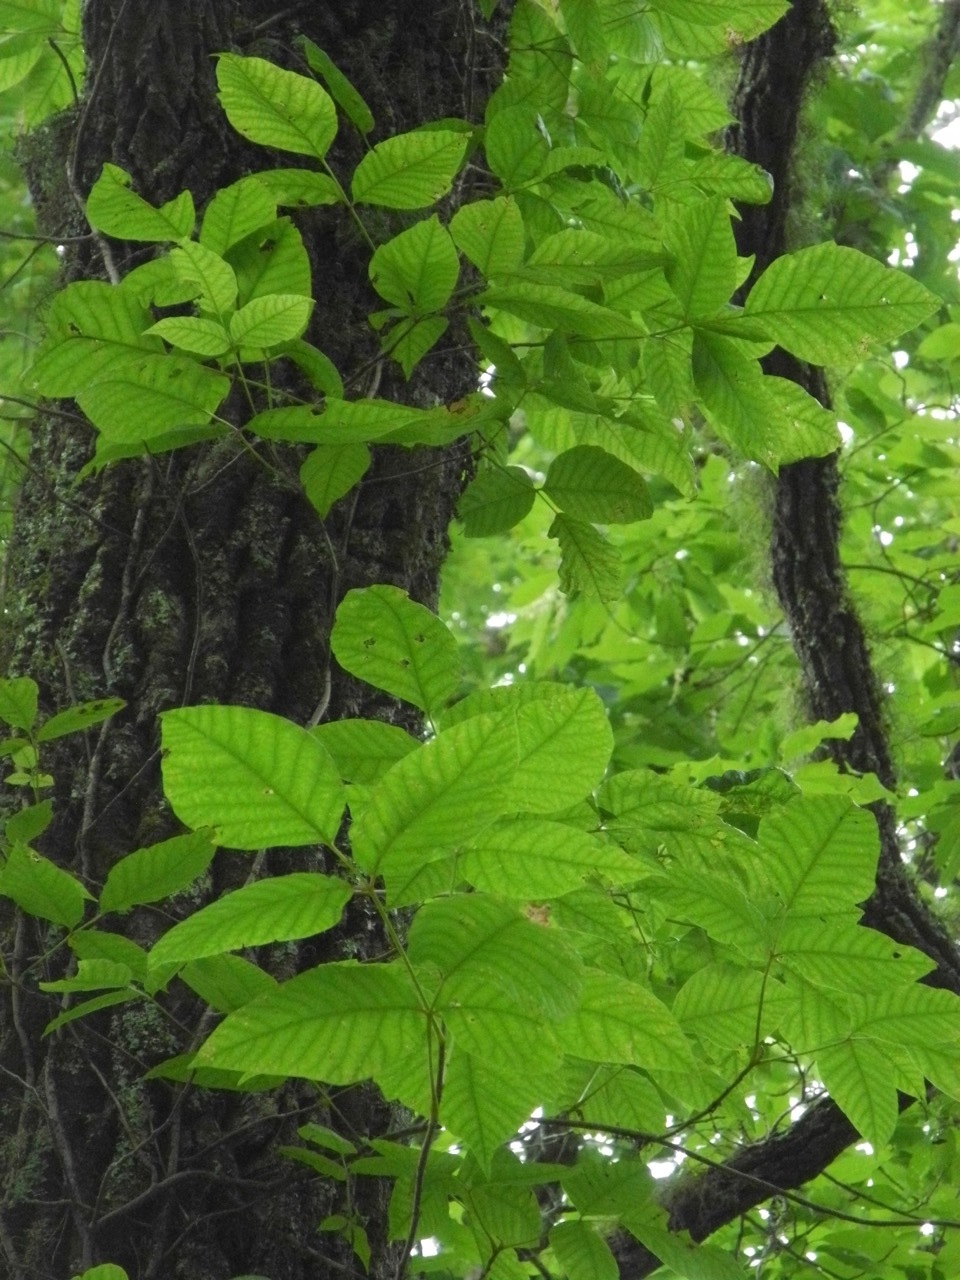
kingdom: Plantae
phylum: Tracheophyta
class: Magnoliopsida
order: Sapindales
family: Anacardiaceae
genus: Toxicodendron
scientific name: Toxicodendron radicans
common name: Poison ivy
